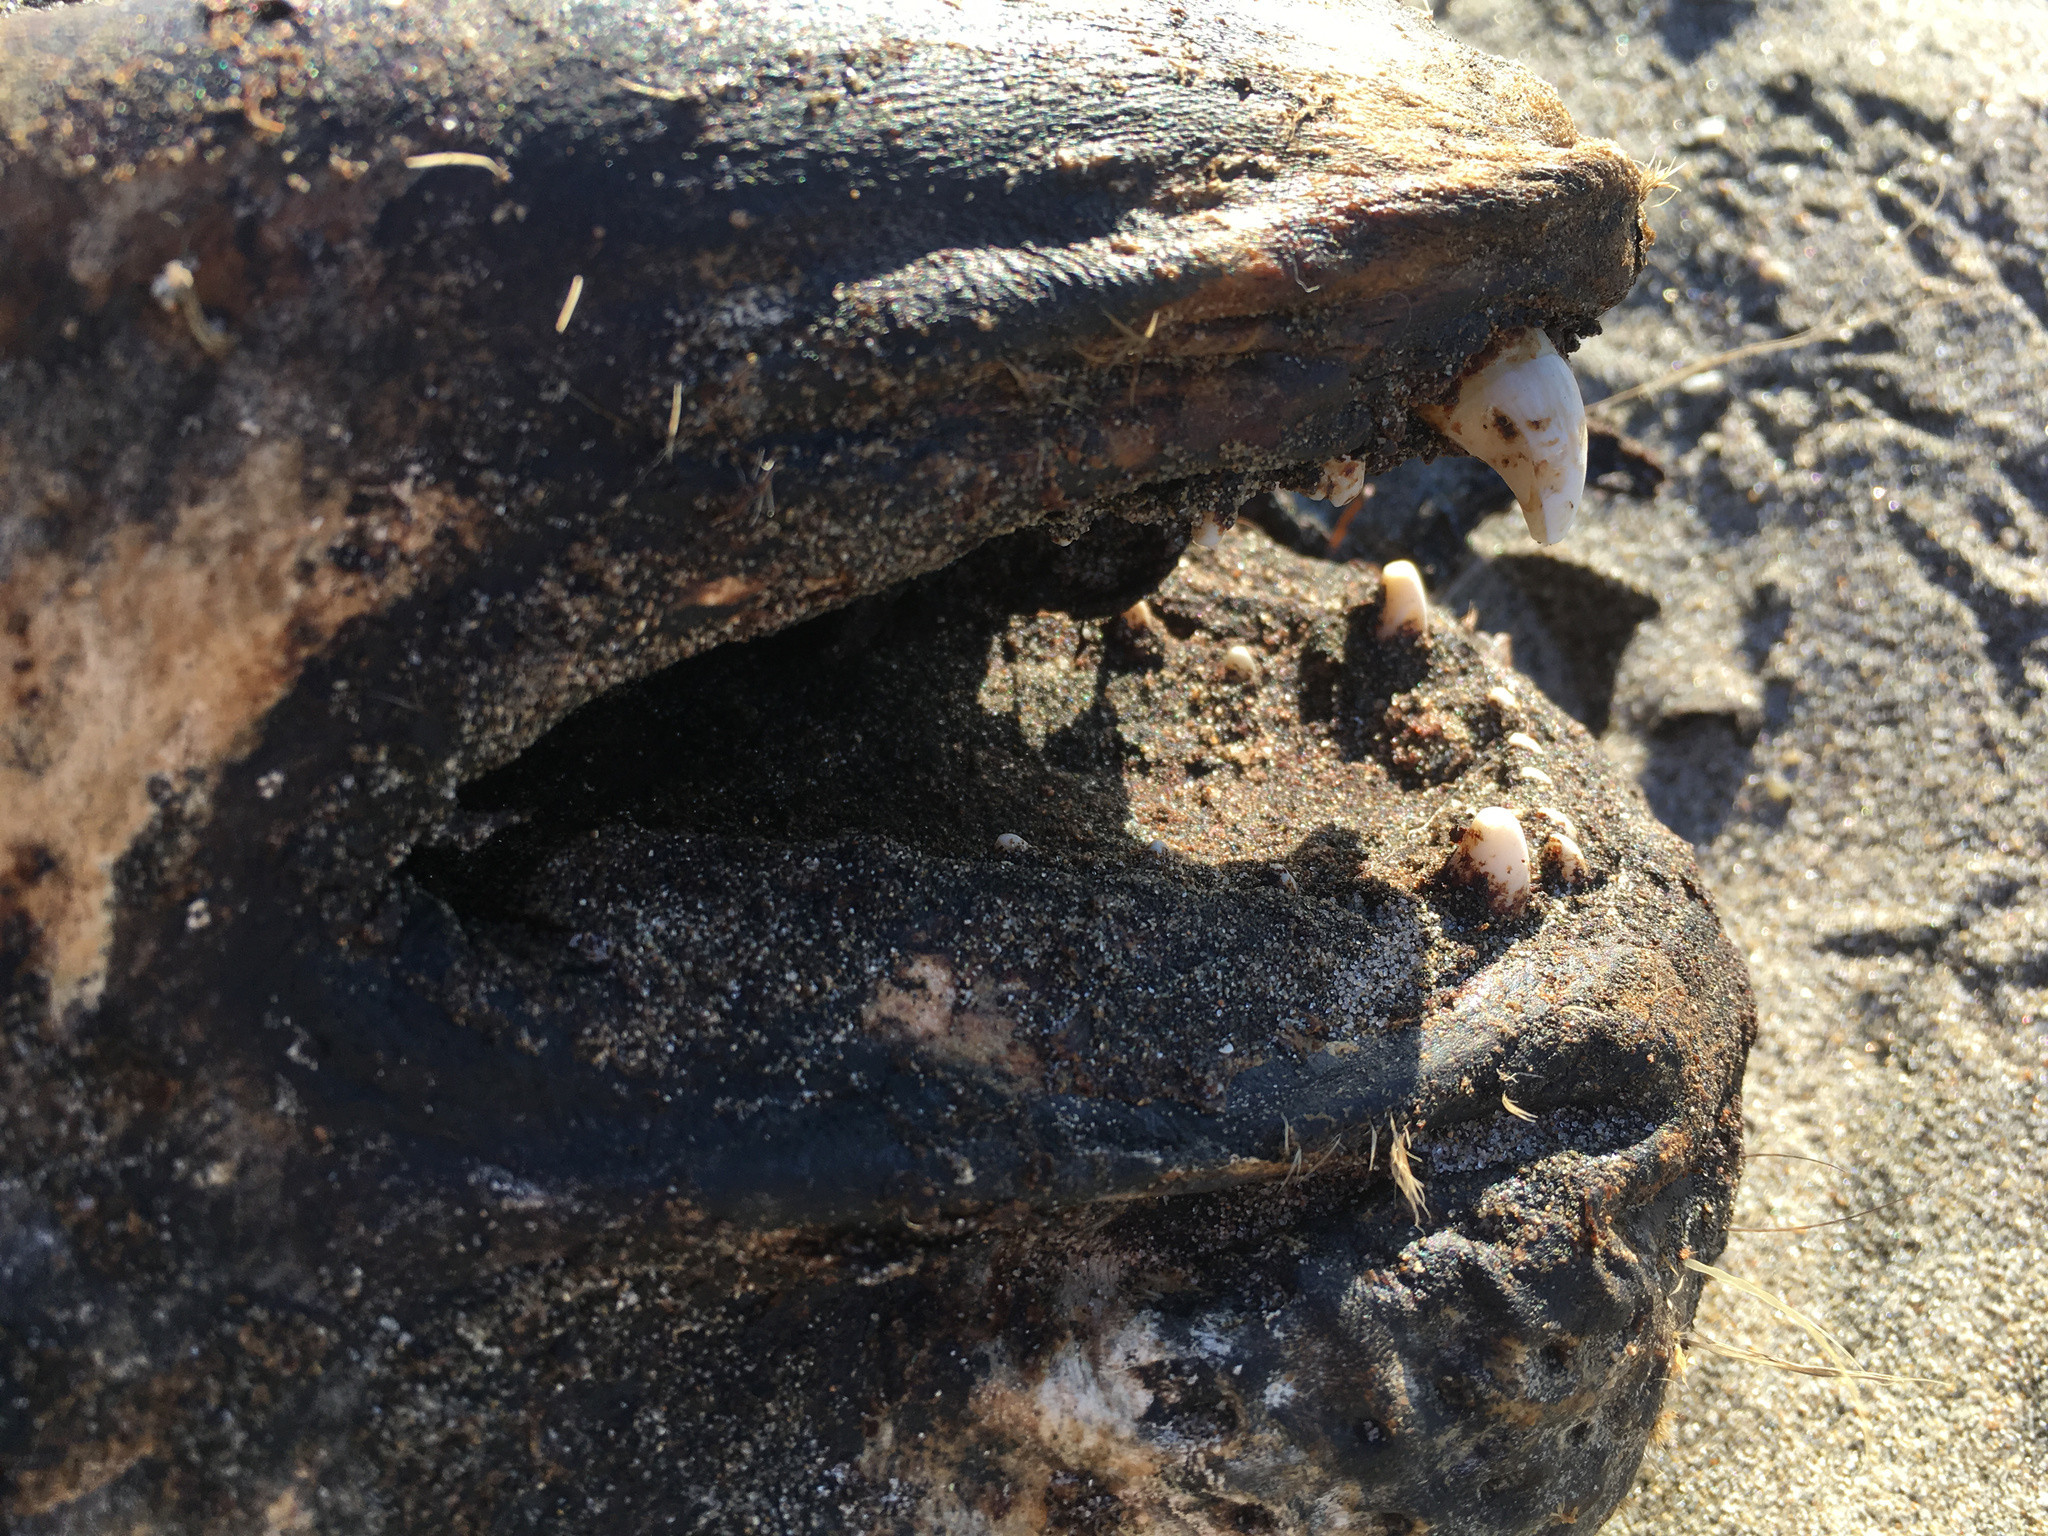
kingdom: Animalia
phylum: Chordata
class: Mammalia
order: Carnivora
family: Phocidae
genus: Phoca
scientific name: Phoca vitulina
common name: Harbor seal
